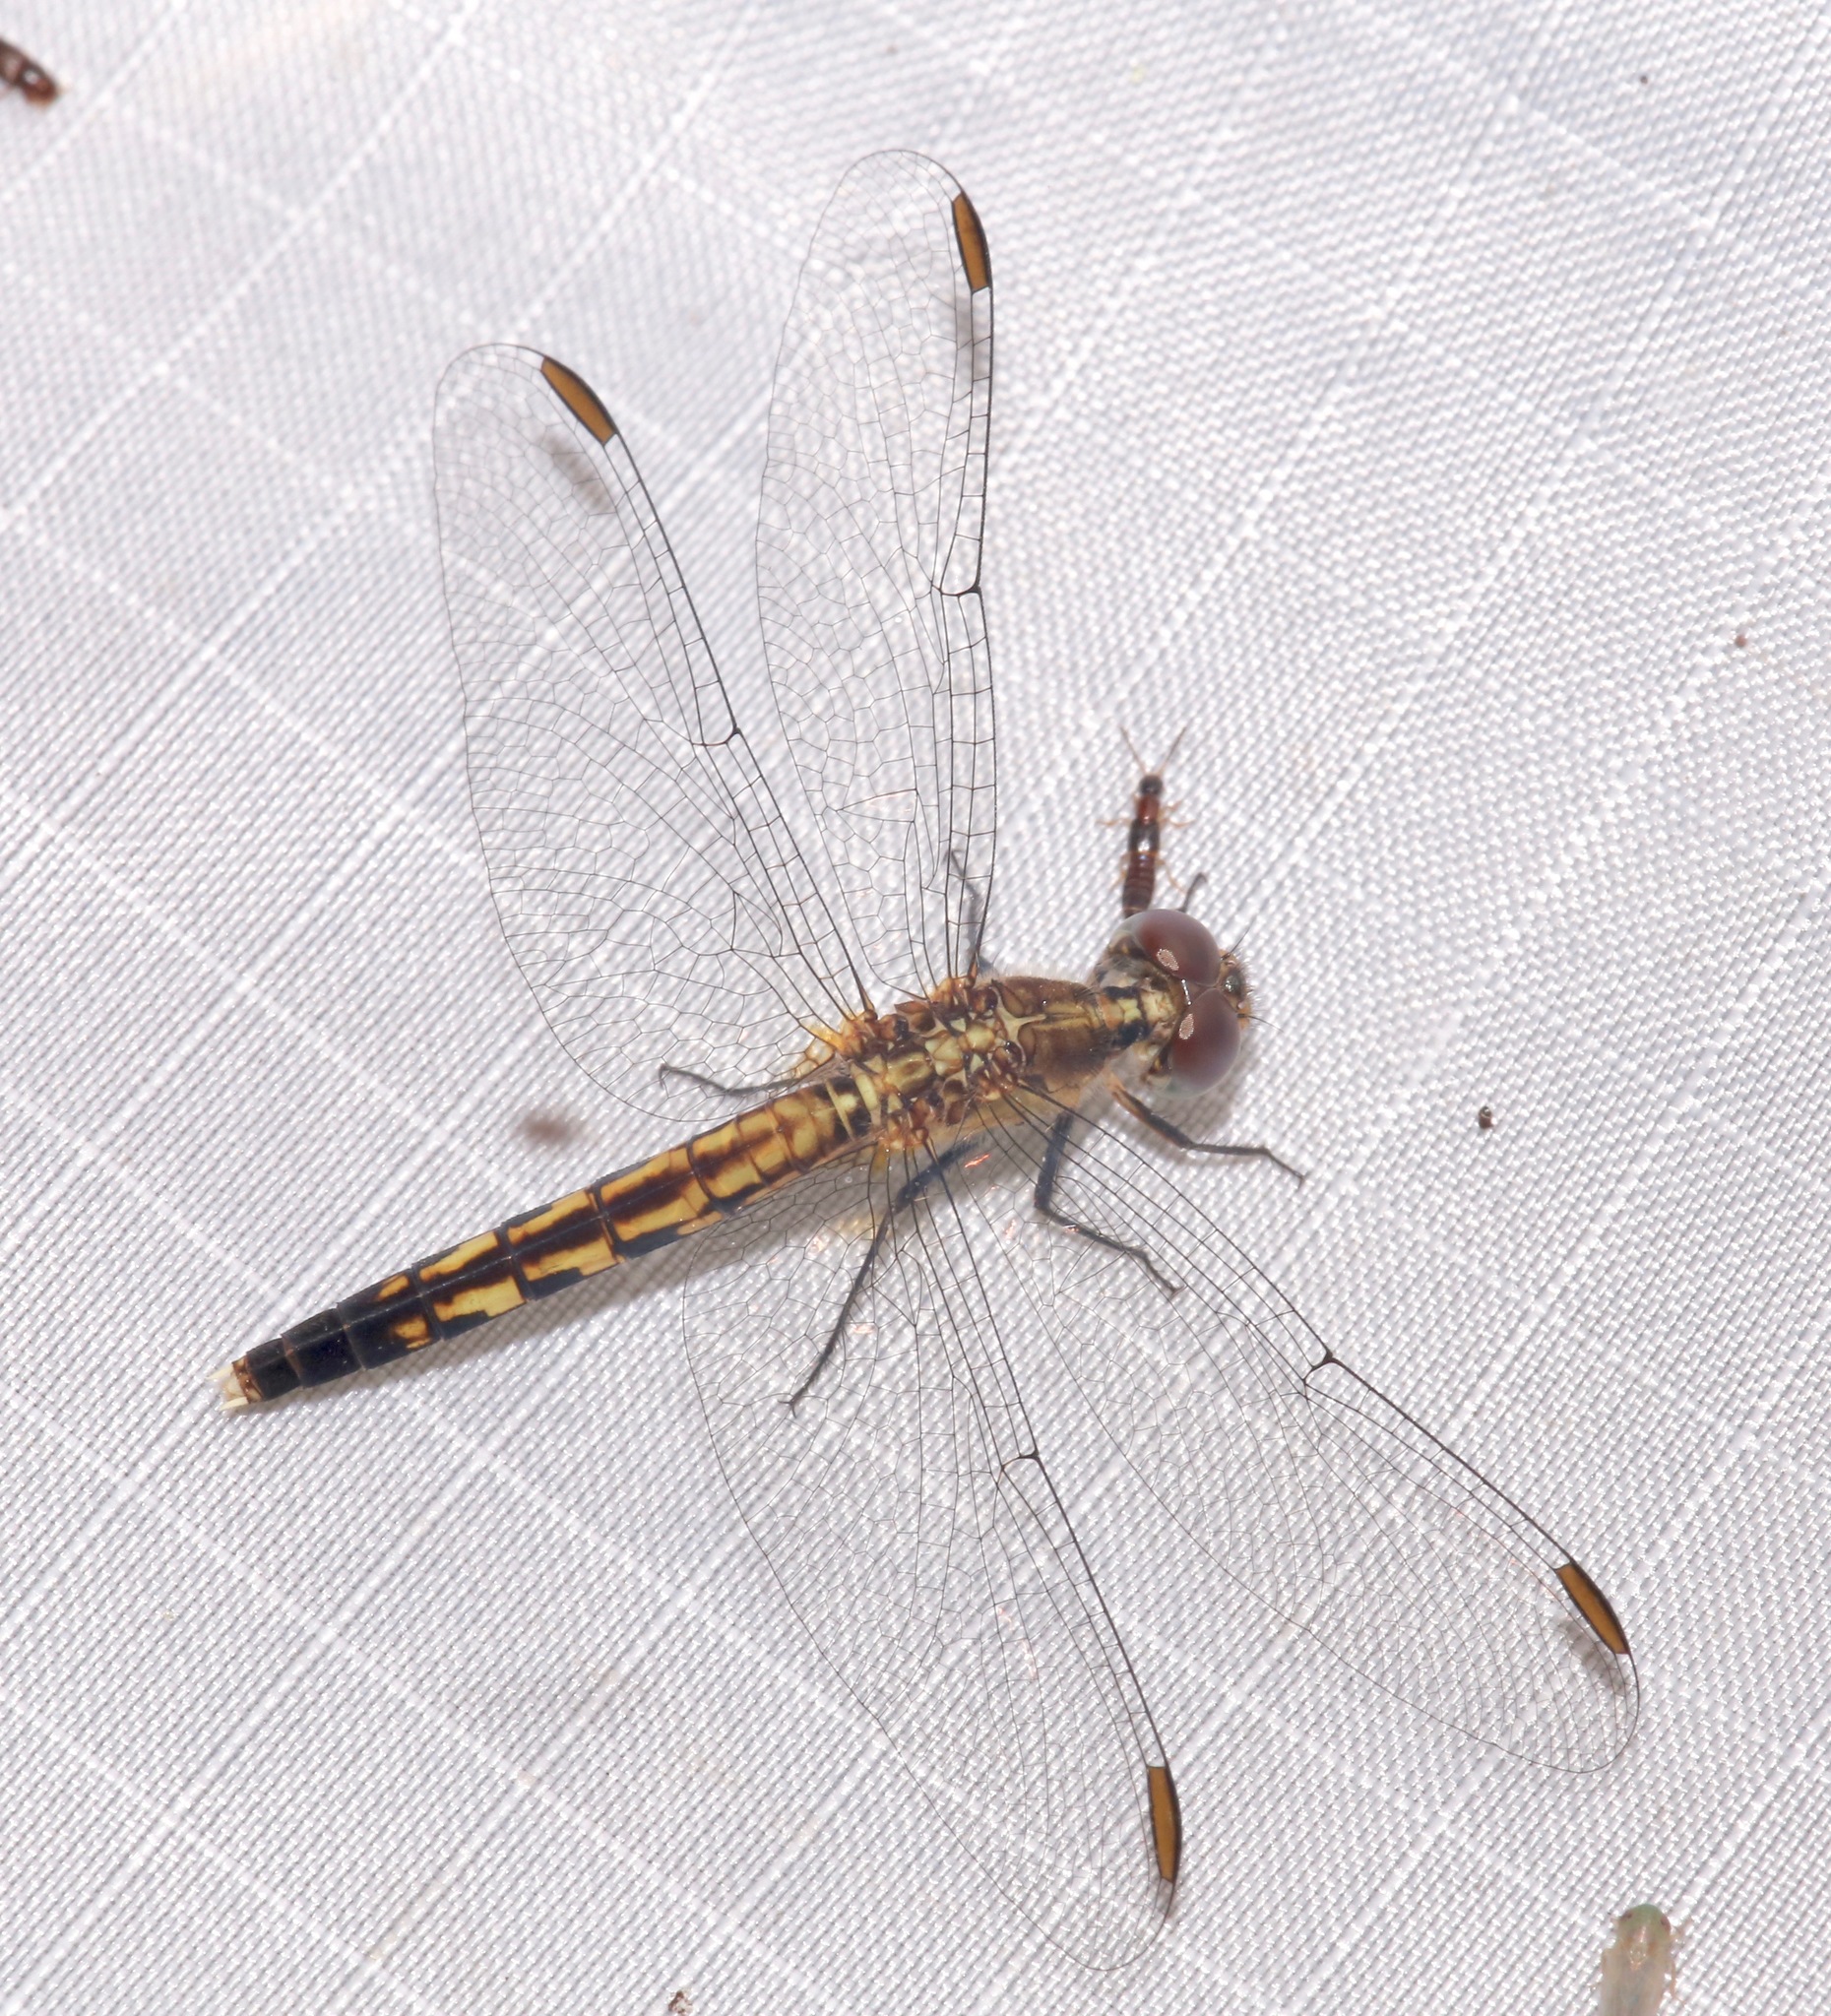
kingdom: Animalia
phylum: Arthropoda
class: Insecta
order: Odonata
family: Libellulidae
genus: Erythrodiplax
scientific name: Erythrodiplax minuscula
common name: Little blue dragonlet
